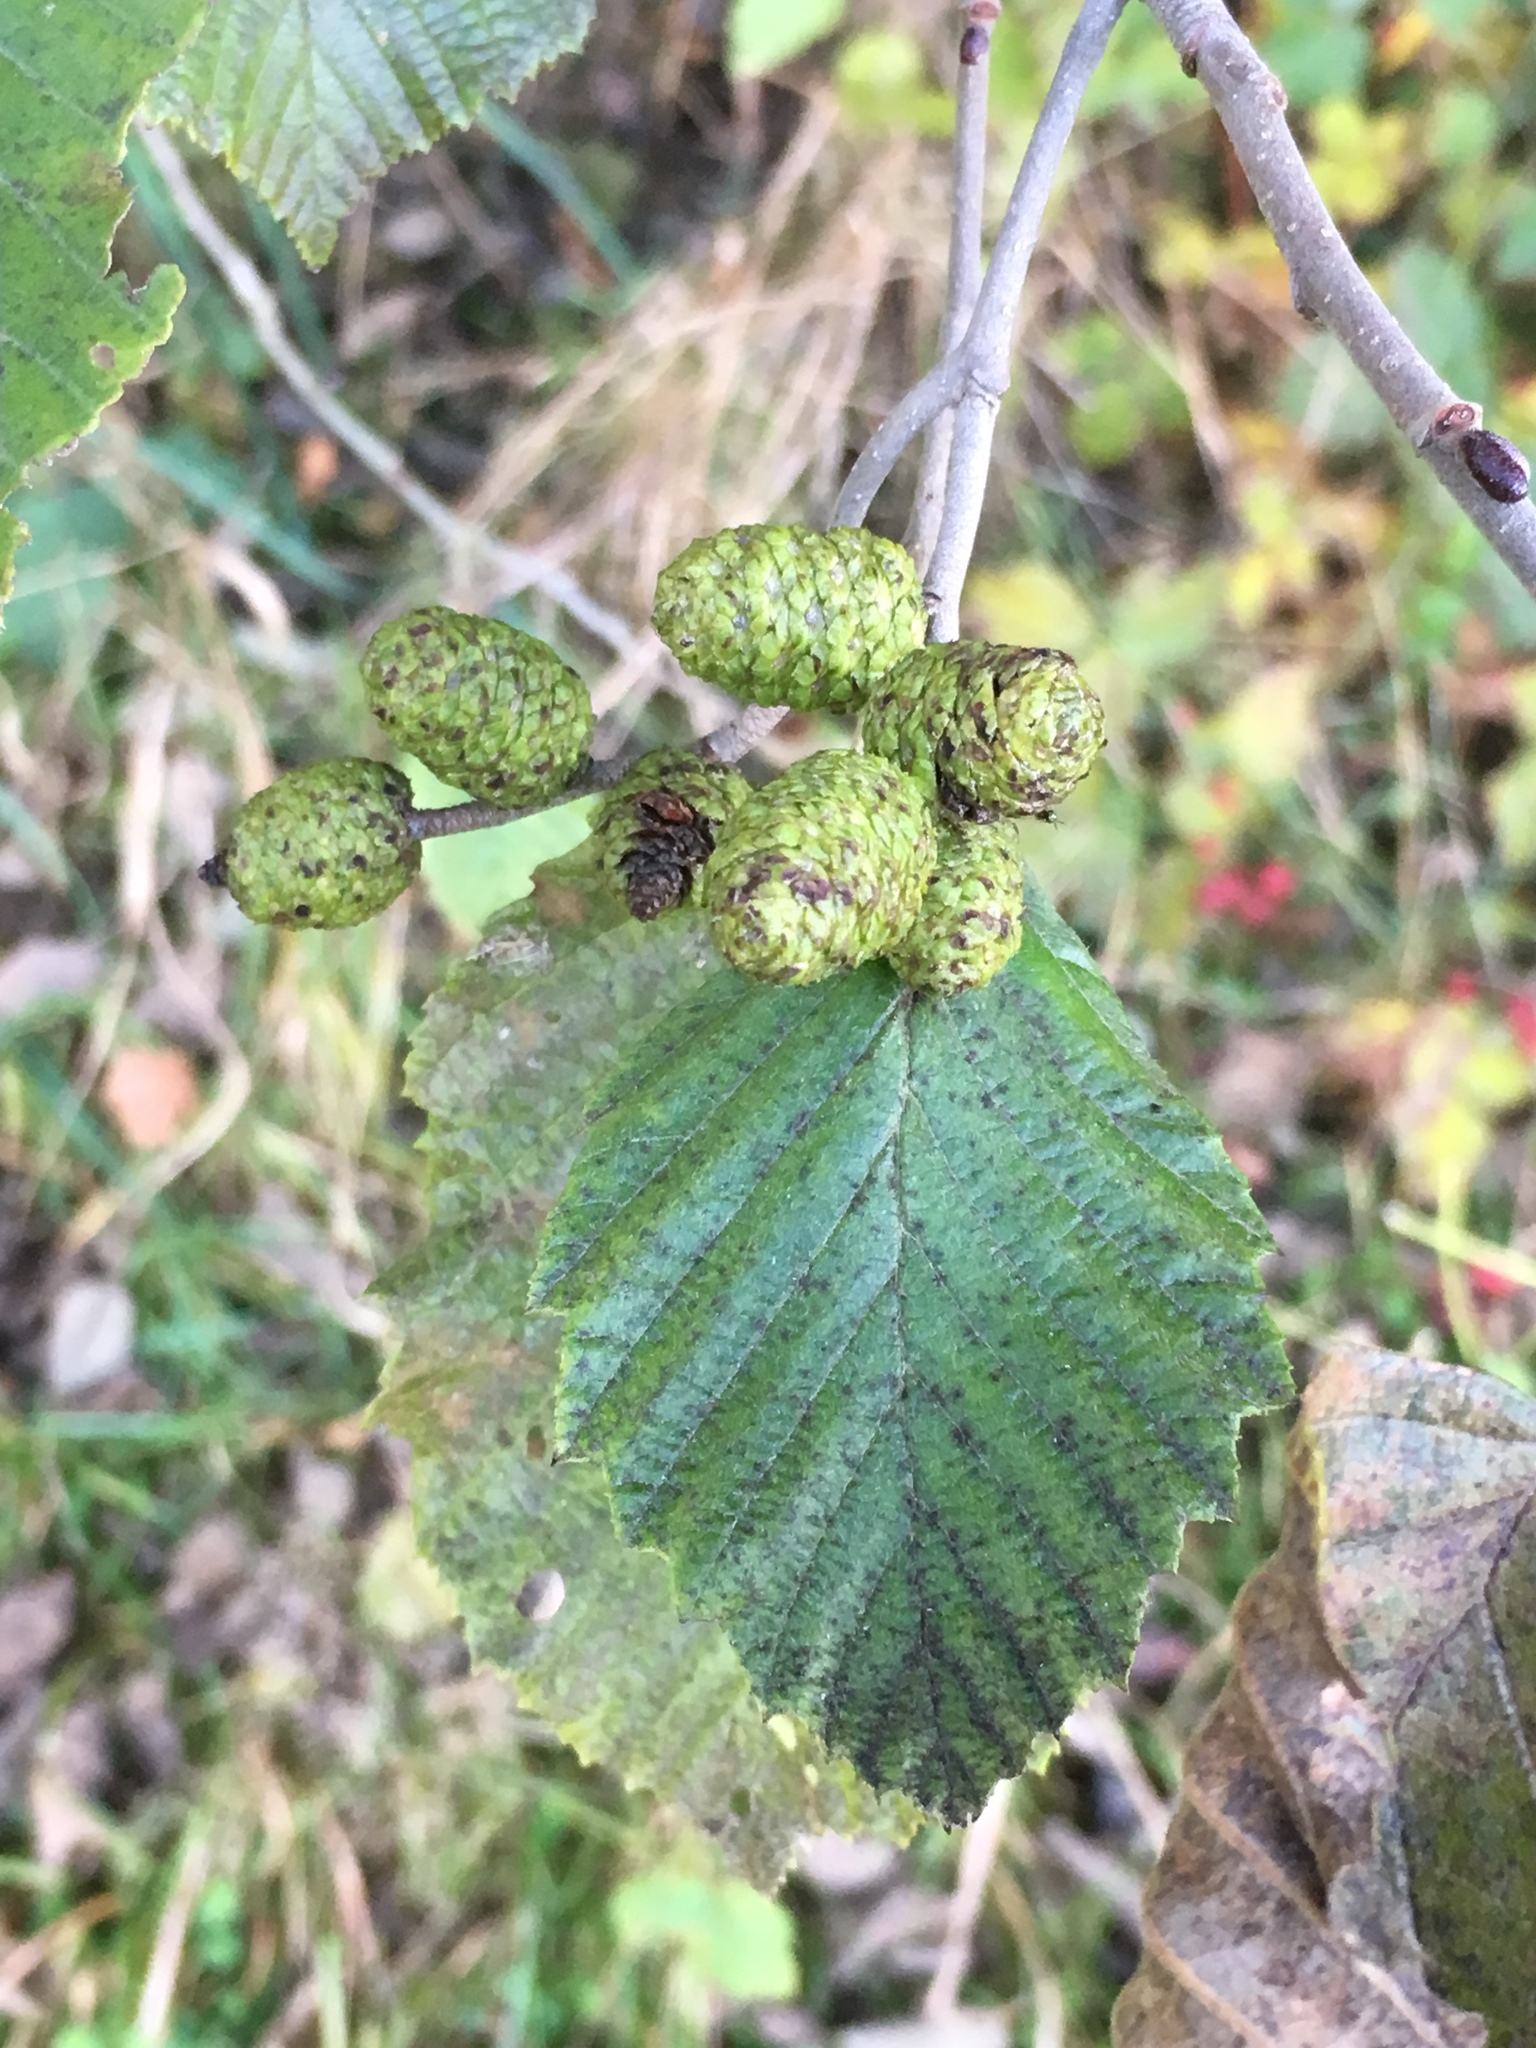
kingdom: Plantae
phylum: Tracheophyta
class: Magnoliopsida
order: Fagales
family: Betulaceae
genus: Alnus
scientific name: Alnus incana
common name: Grey alder
